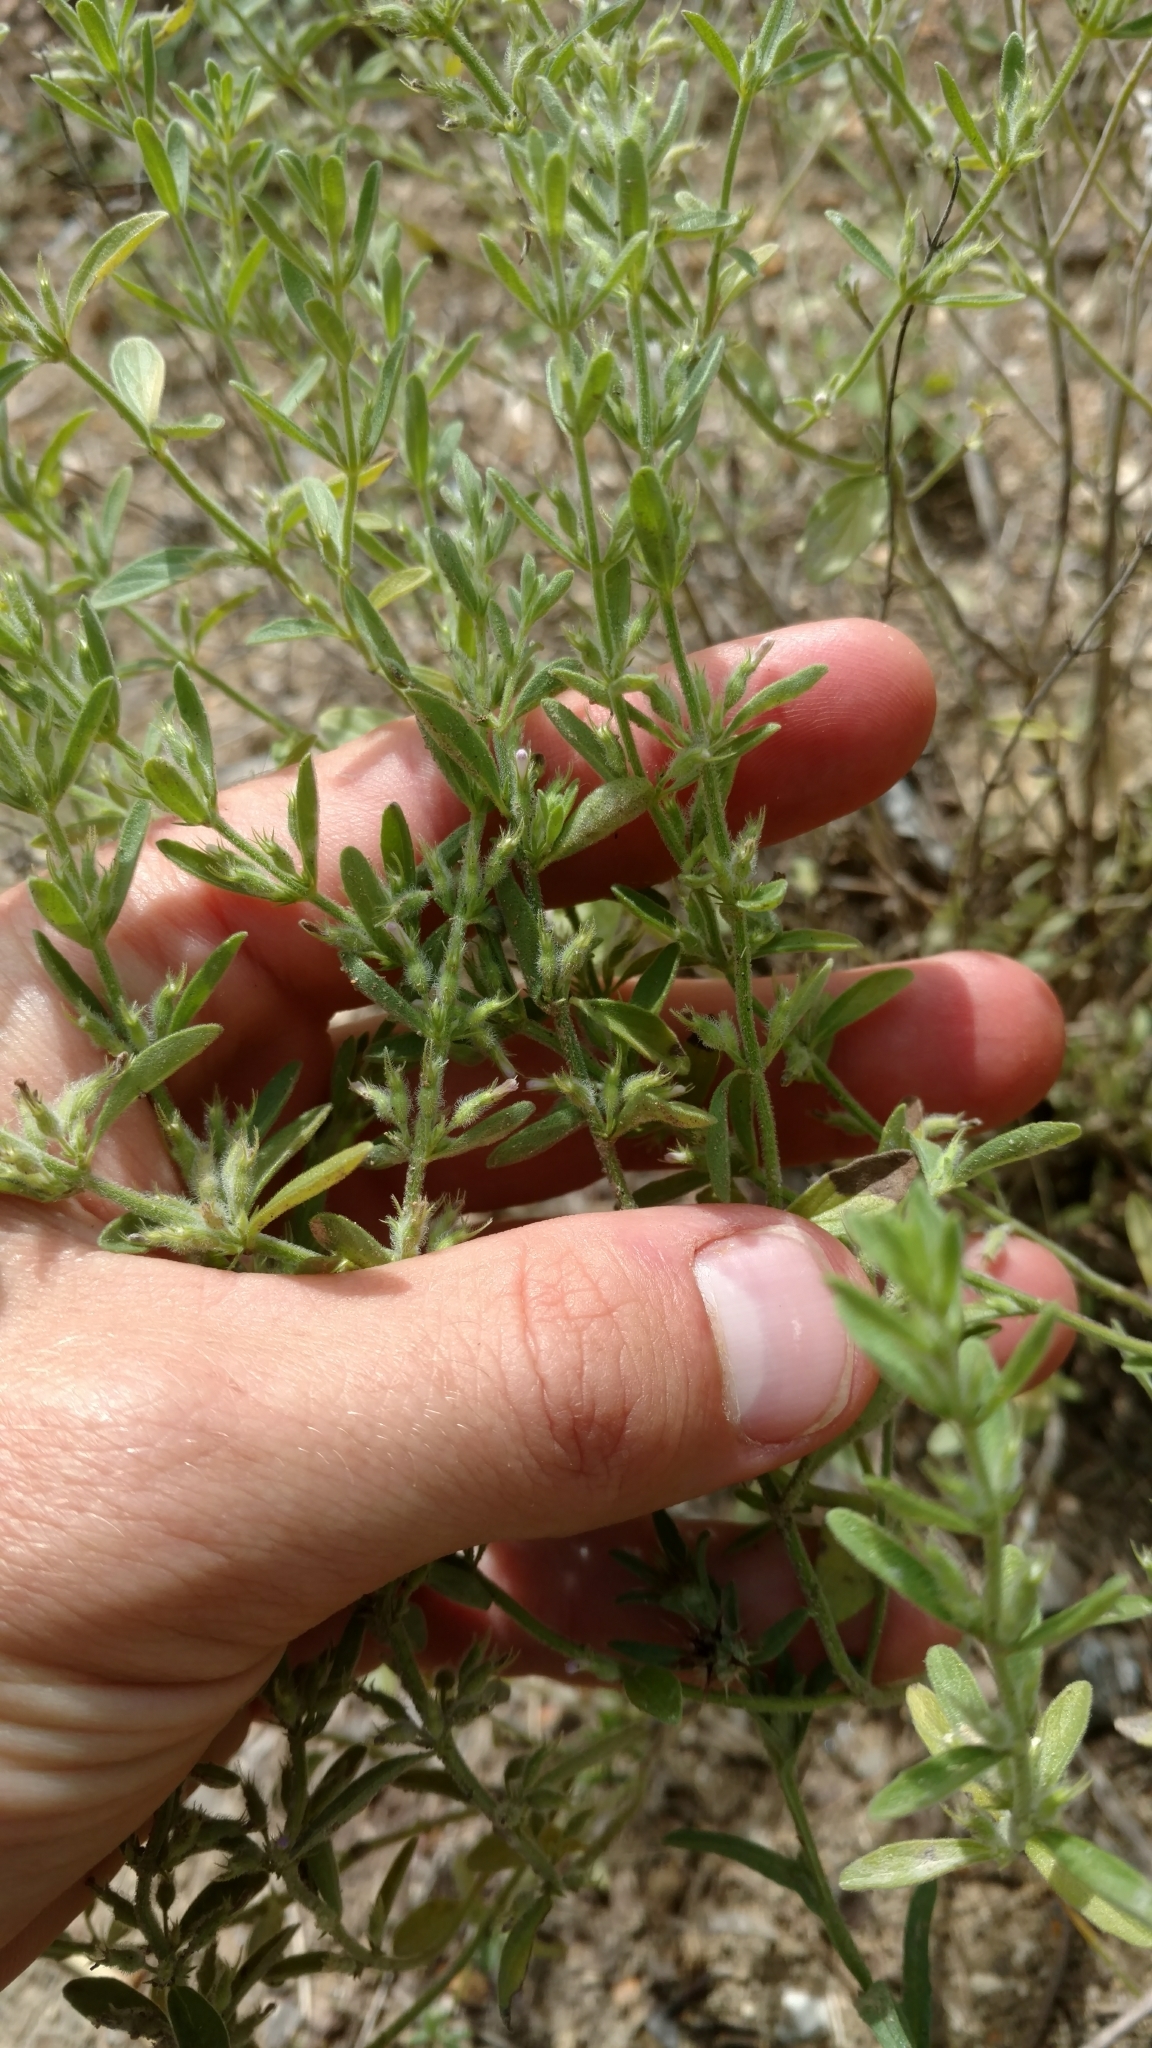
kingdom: Plantae
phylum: Tracheophyta
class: Magnoliopsida
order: Lamiales
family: Lamiaceae
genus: Hedeoma
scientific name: Hedeoma reverchonii
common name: Reverchon's false penny-royal
